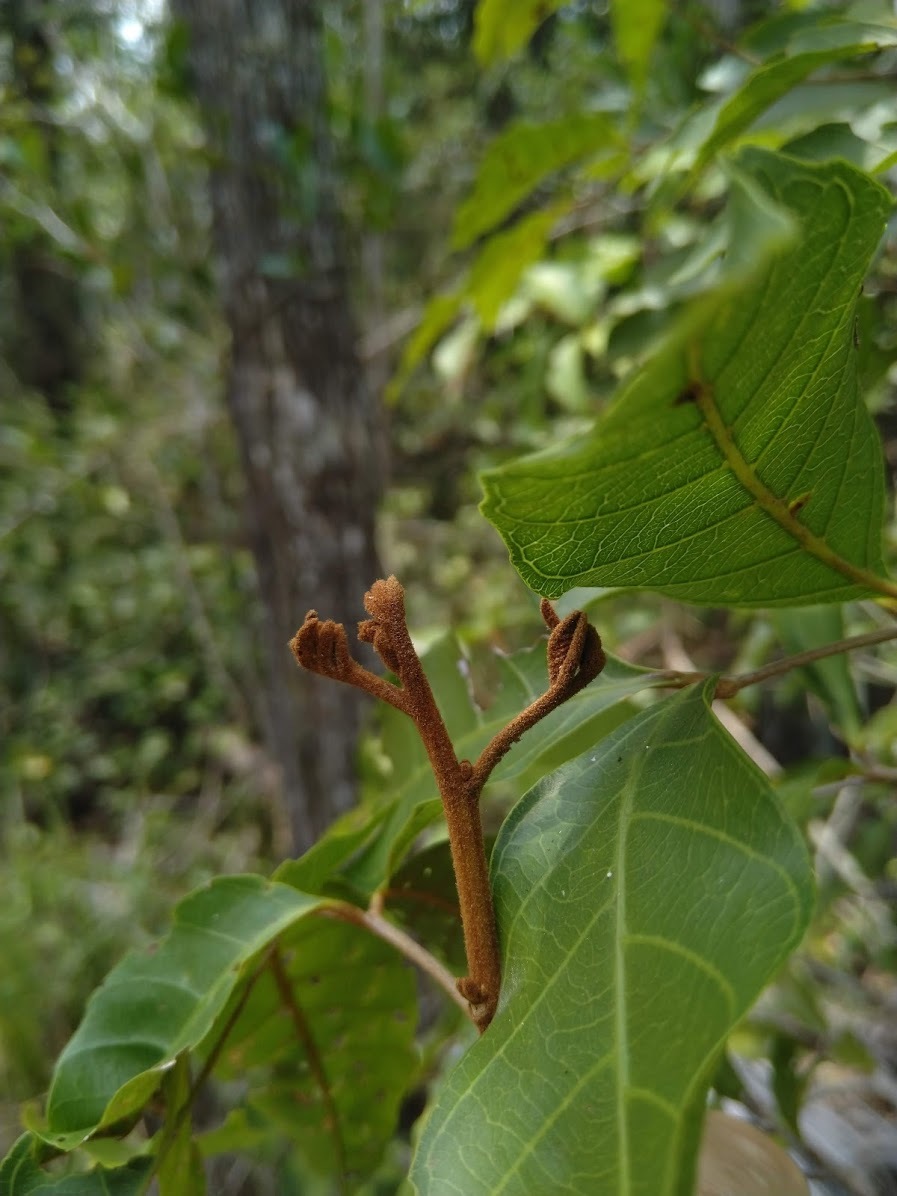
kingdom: Plantae
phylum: Tracheophyta
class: Magnoliopsida
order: Sapindales
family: Sapindaceae
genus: Arytera
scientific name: Arytera foveolata
